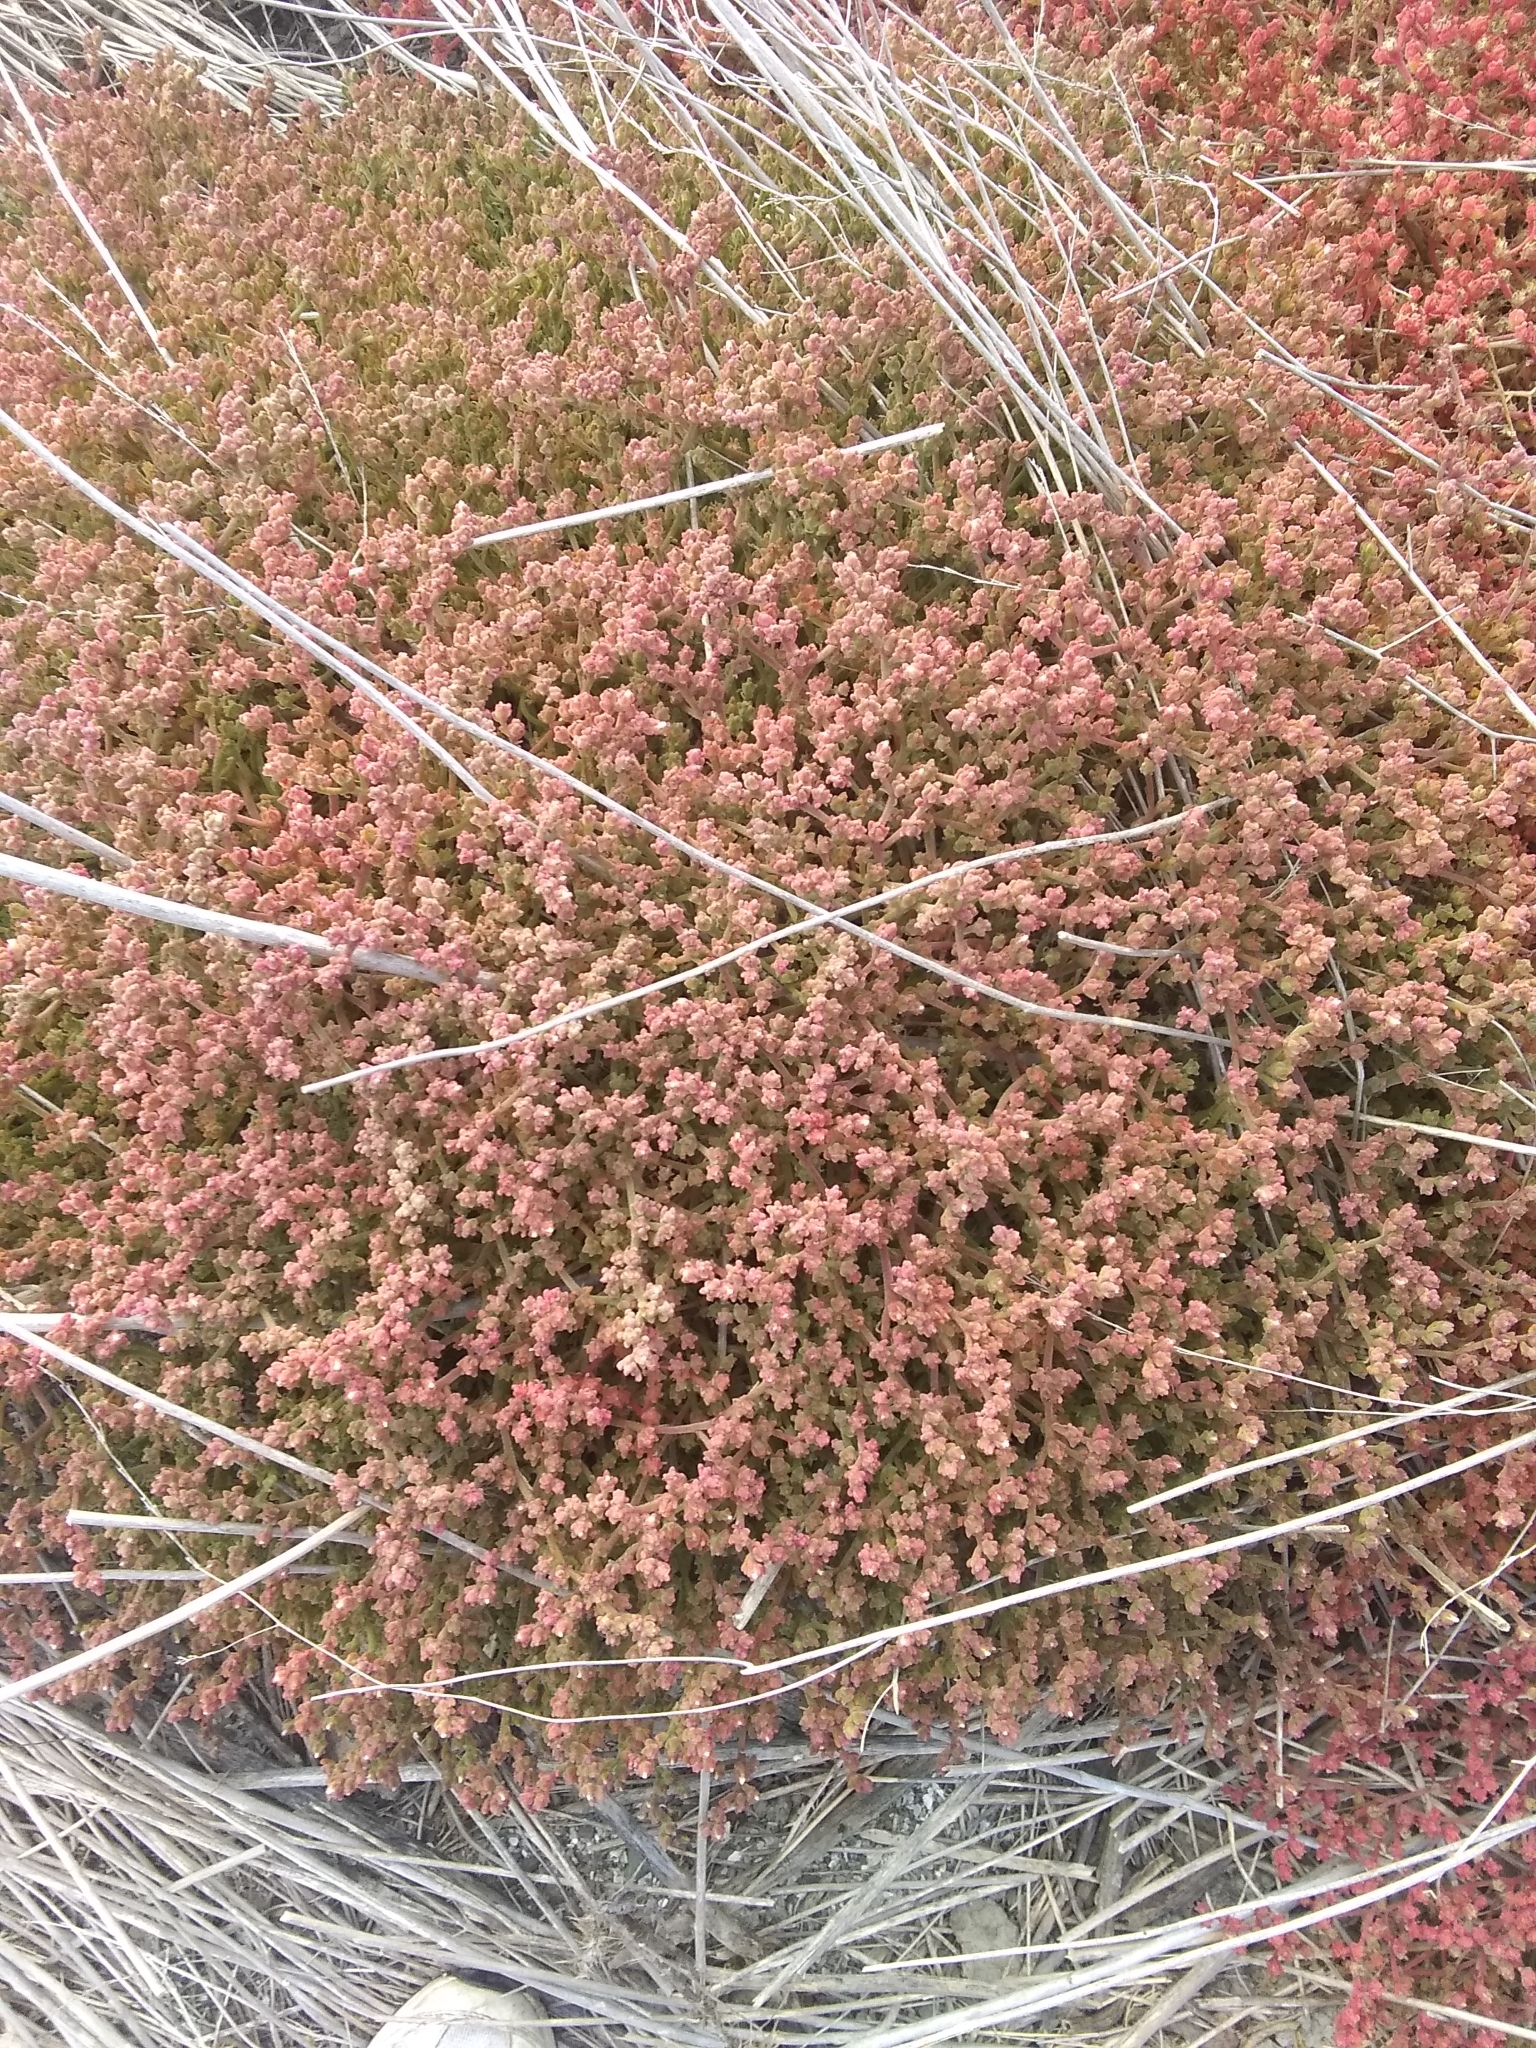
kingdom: Plantae
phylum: Tracheophyta
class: Magnoliopsida
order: Caryophyllales
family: Aizoaceae
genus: Mesembryanthemum
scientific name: Mesembryanthemum nodiflorum
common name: Slenderleaf iceplant
